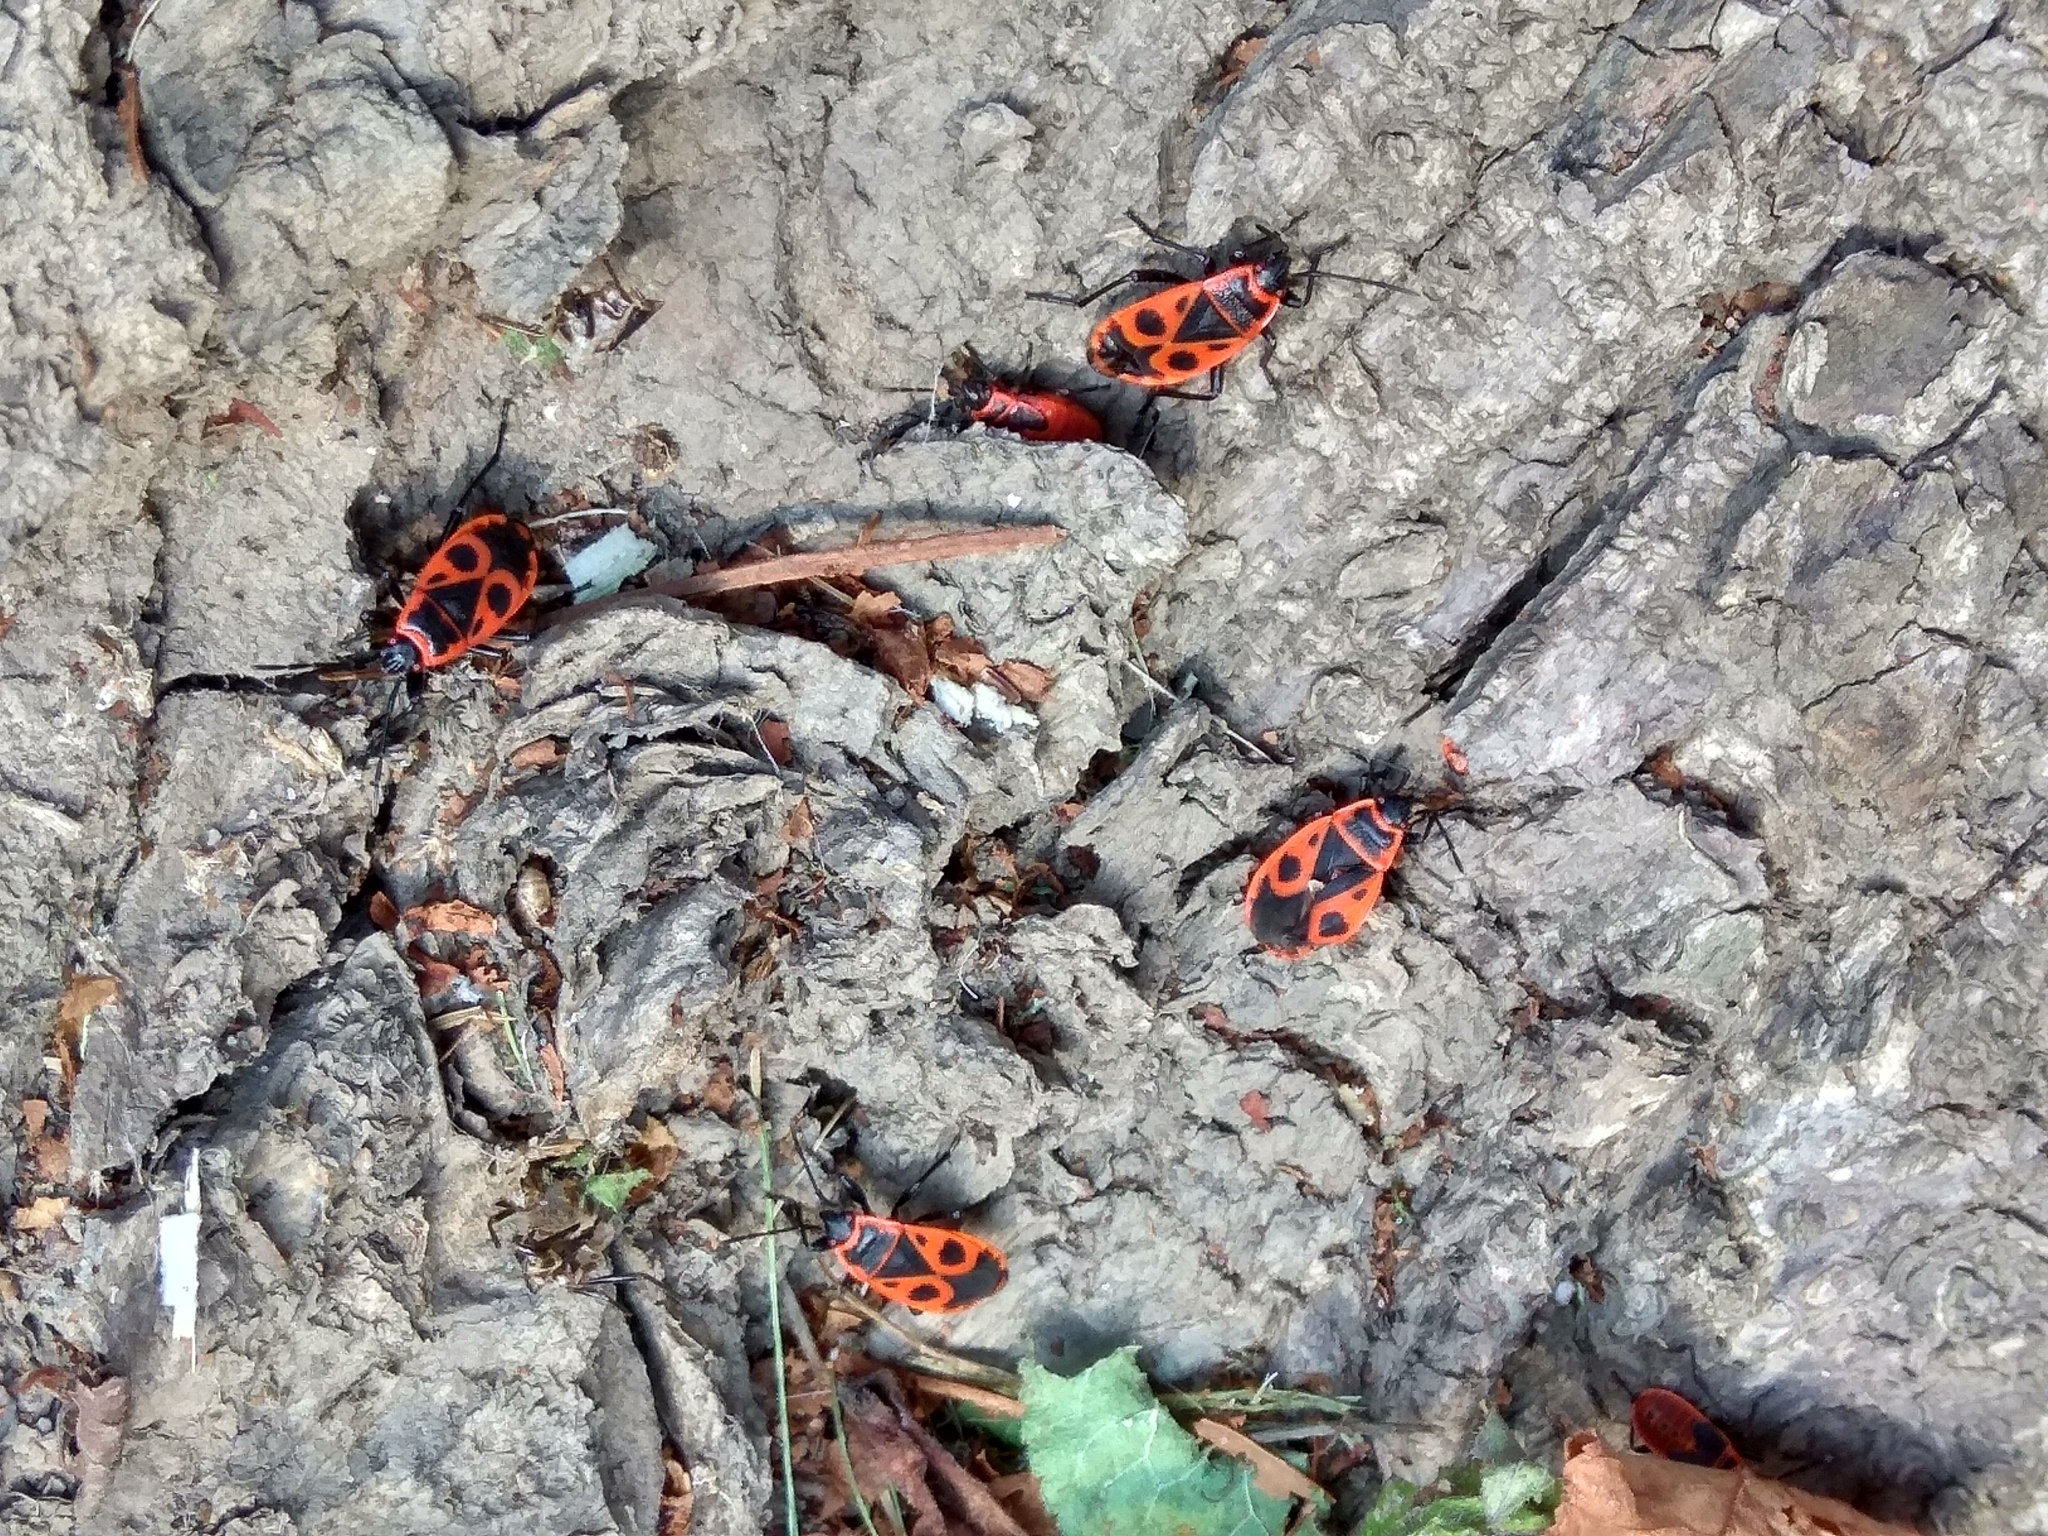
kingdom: Animalia
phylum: Arthropoda
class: Insecta
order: Hemiptera
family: Pyrrhocoridae
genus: Pyrrhocoris
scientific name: Pyrrhocoris apterus
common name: Firebug
